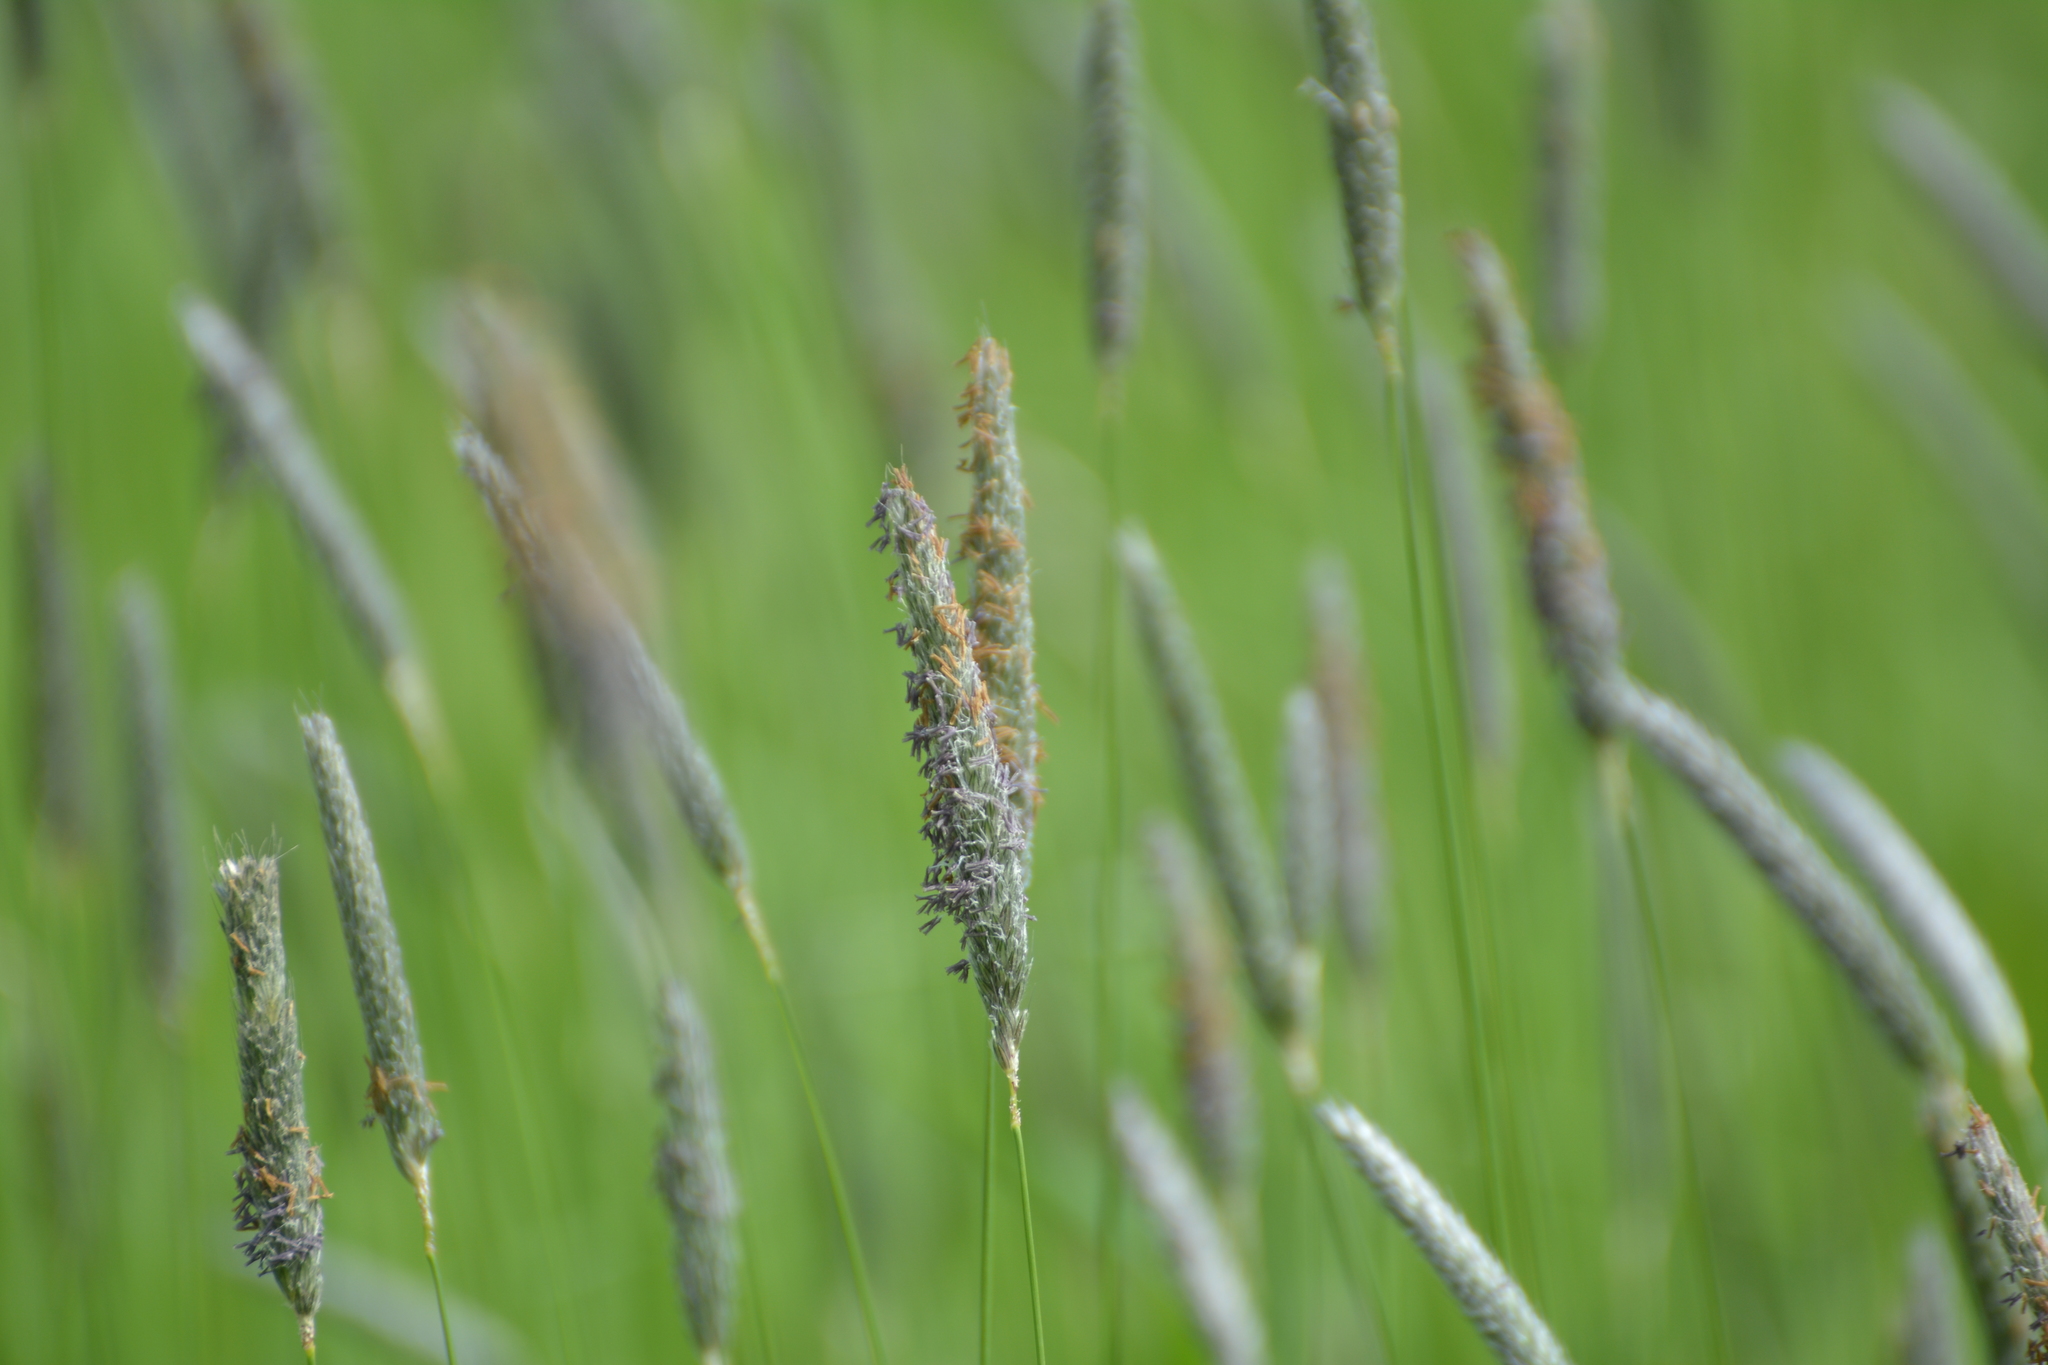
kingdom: Plantae
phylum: Tracheophyta
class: Liliopsida
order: Poales
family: Poaceae
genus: Alopecurus
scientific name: Alopecurus pratensis
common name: Meadow foxtail
